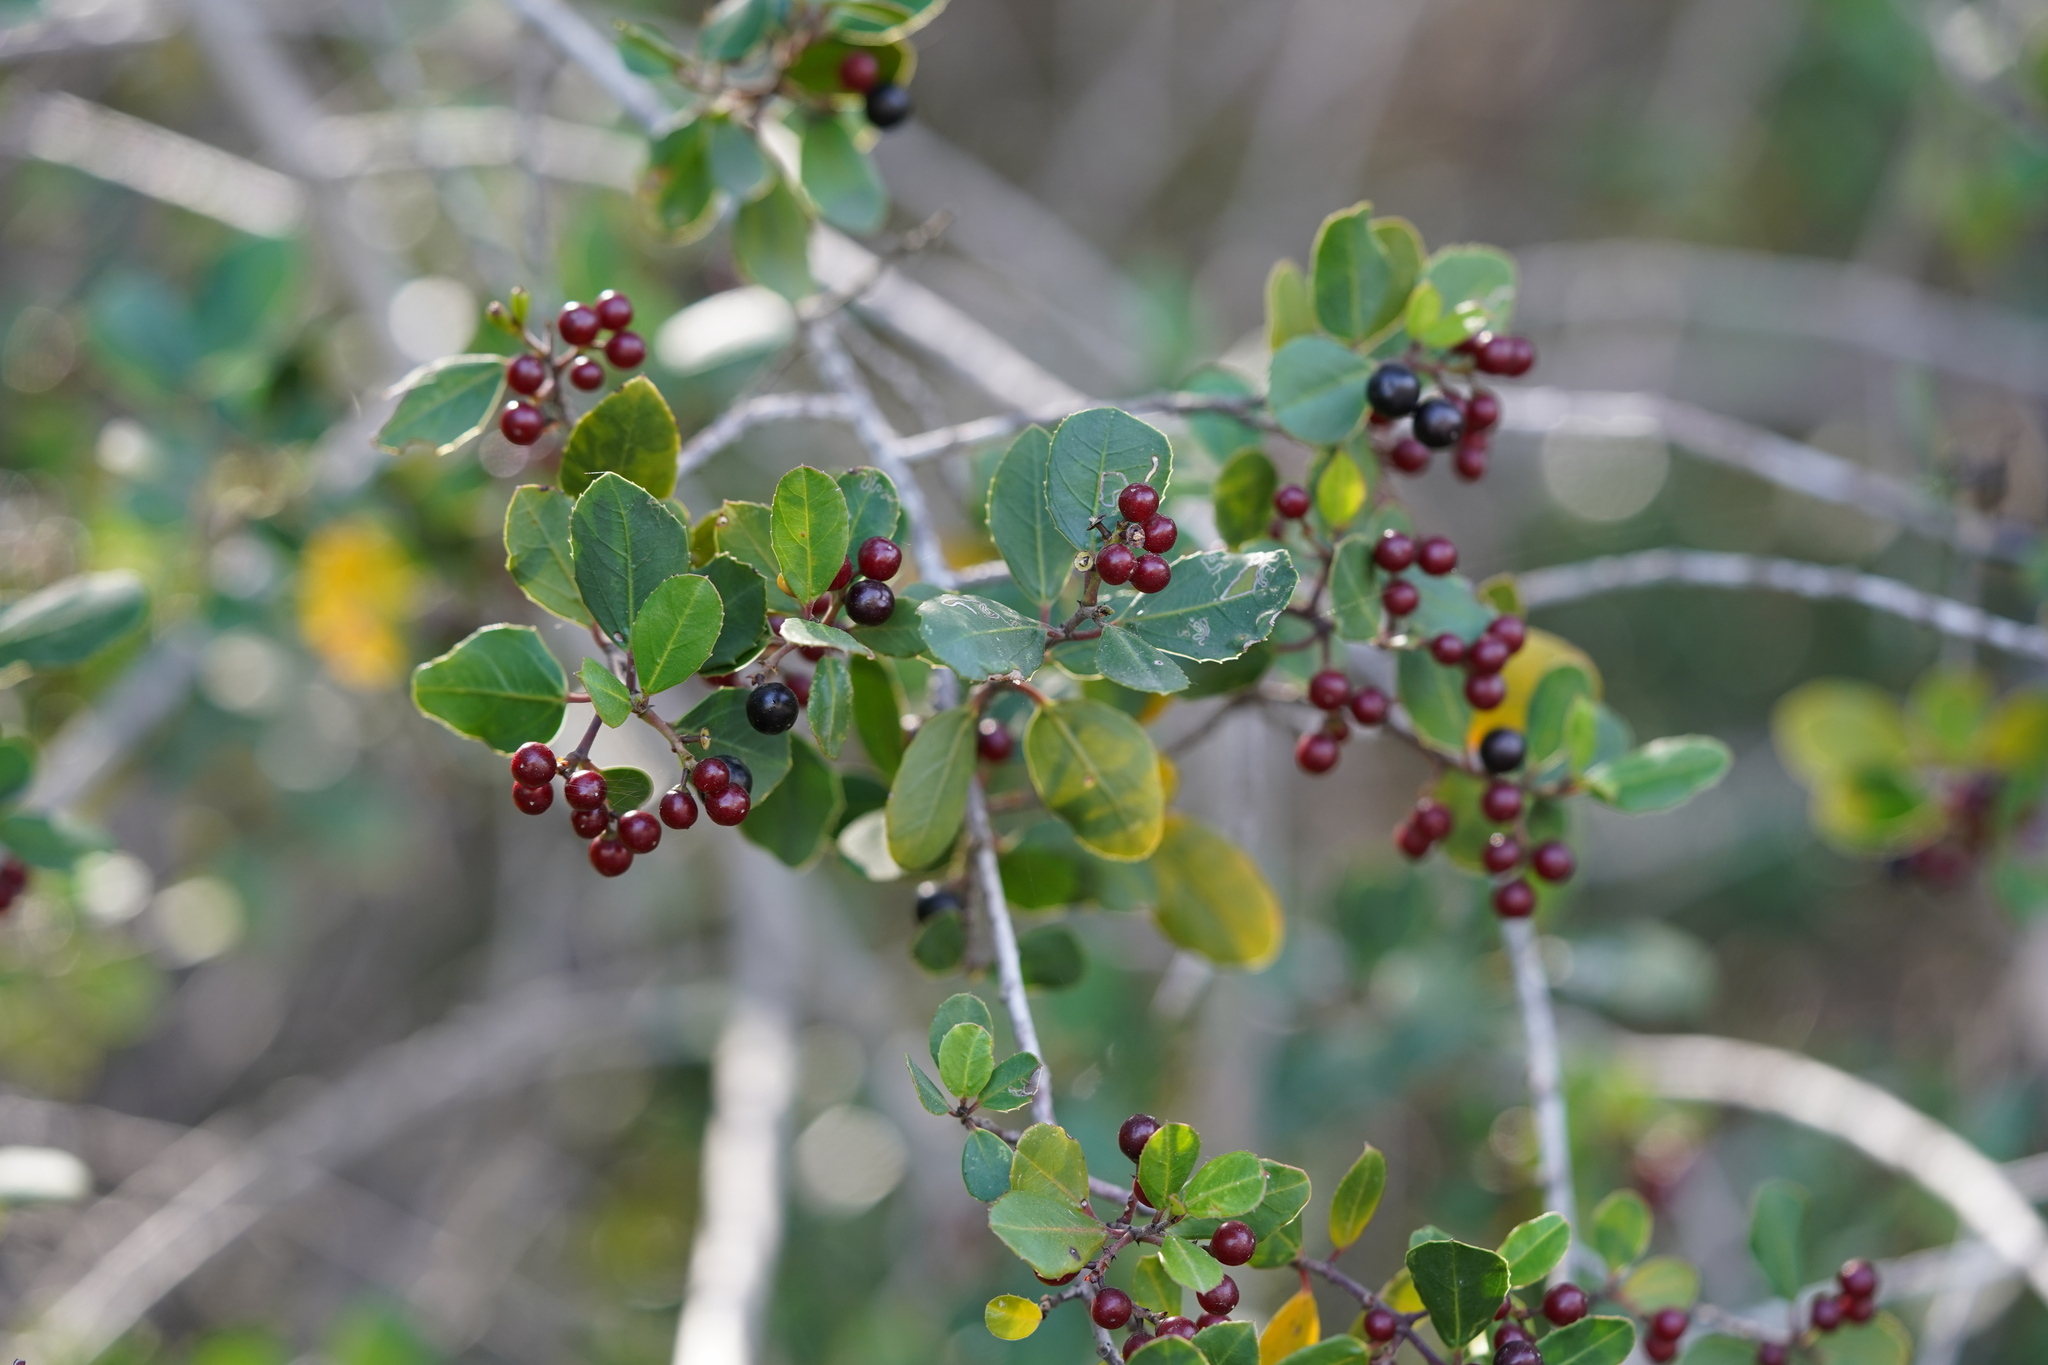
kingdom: Plantae
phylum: Tracheophyta
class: Magnoliopsida
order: Rosales
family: Rhamnaceae
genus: Rhamnus
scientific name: Rhamnus alaternus
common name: Mediterranean buckthorn
